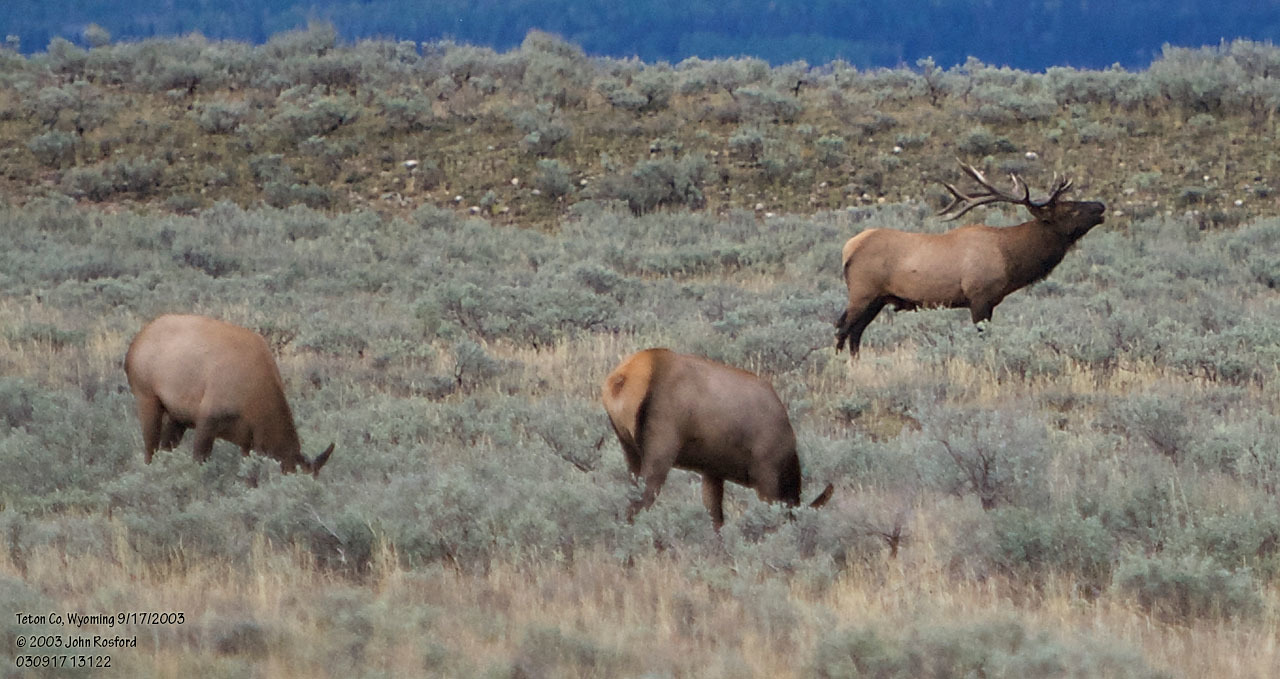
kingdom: Animalia
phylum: Chordata
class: Mammalia
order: Artiodactyla
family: Cervidae
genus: Cervus
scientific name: Cervus elaphus
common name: Red deer
